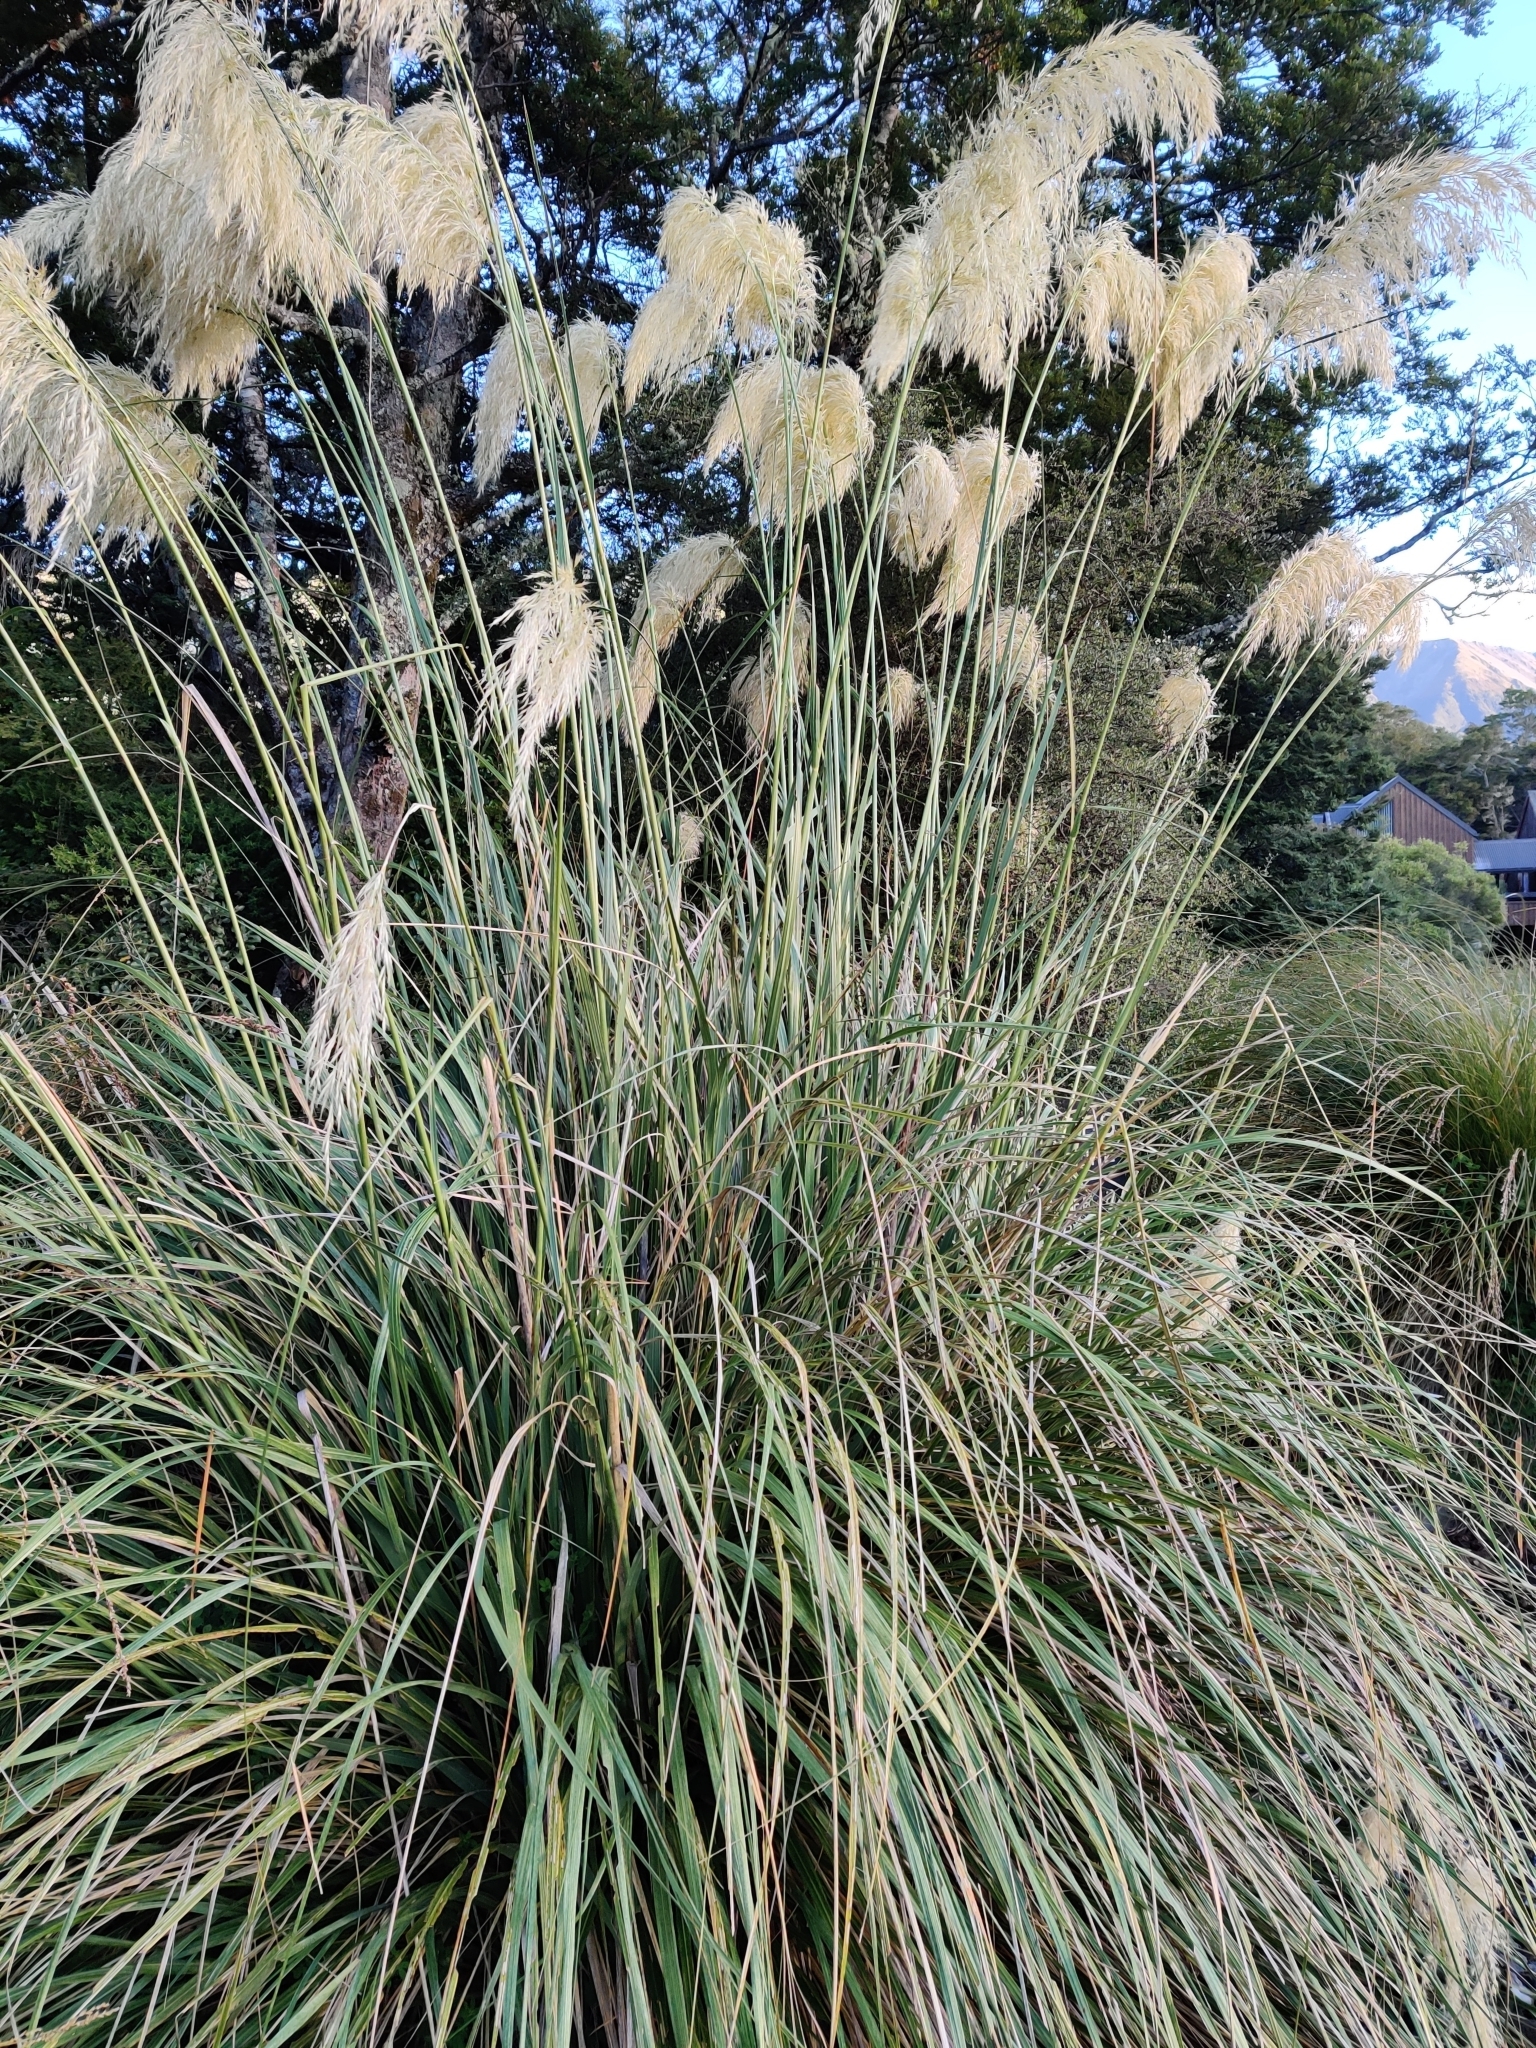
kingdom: Plantae
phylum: Tracheophyta
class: Liliopsida
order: Poales
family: Poaceae
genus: Austroderia
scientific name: Austroderia richardii
